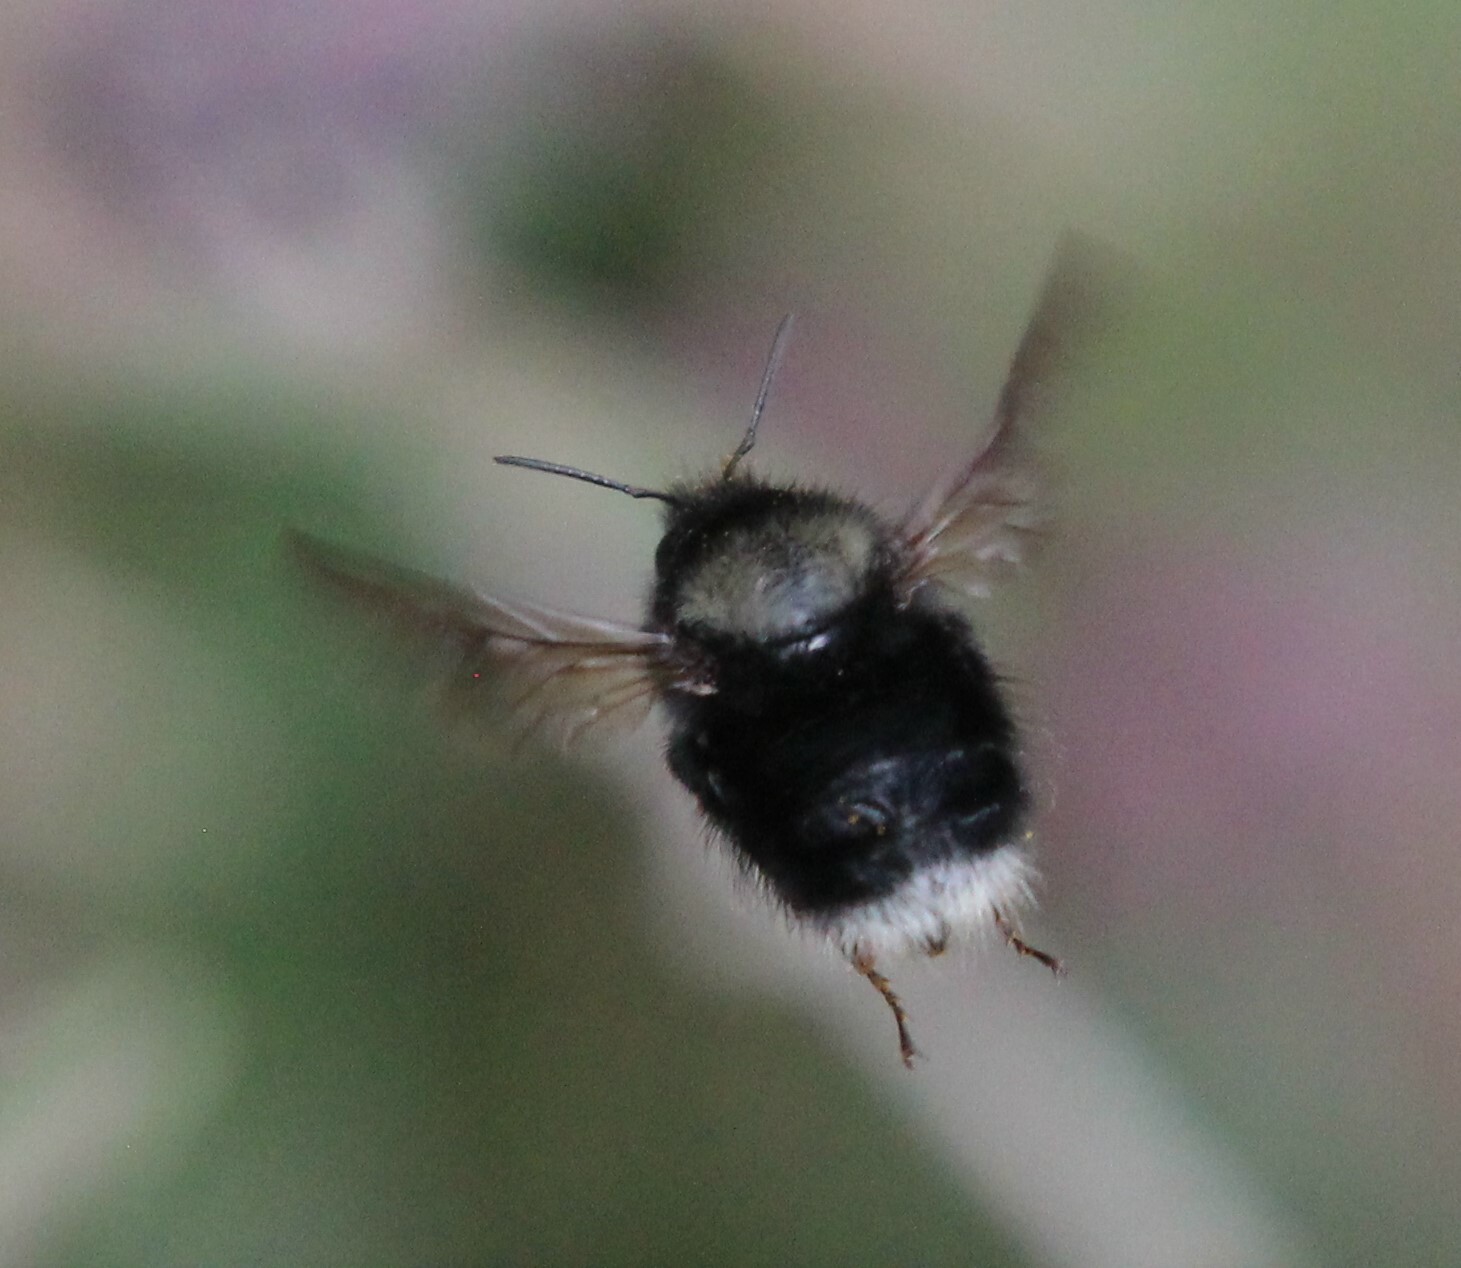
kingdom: Animalia
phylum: Arthropoda
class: Insecta
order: Hymenoptera
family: Apidae
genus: Bombus
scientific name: Bombus funebris
